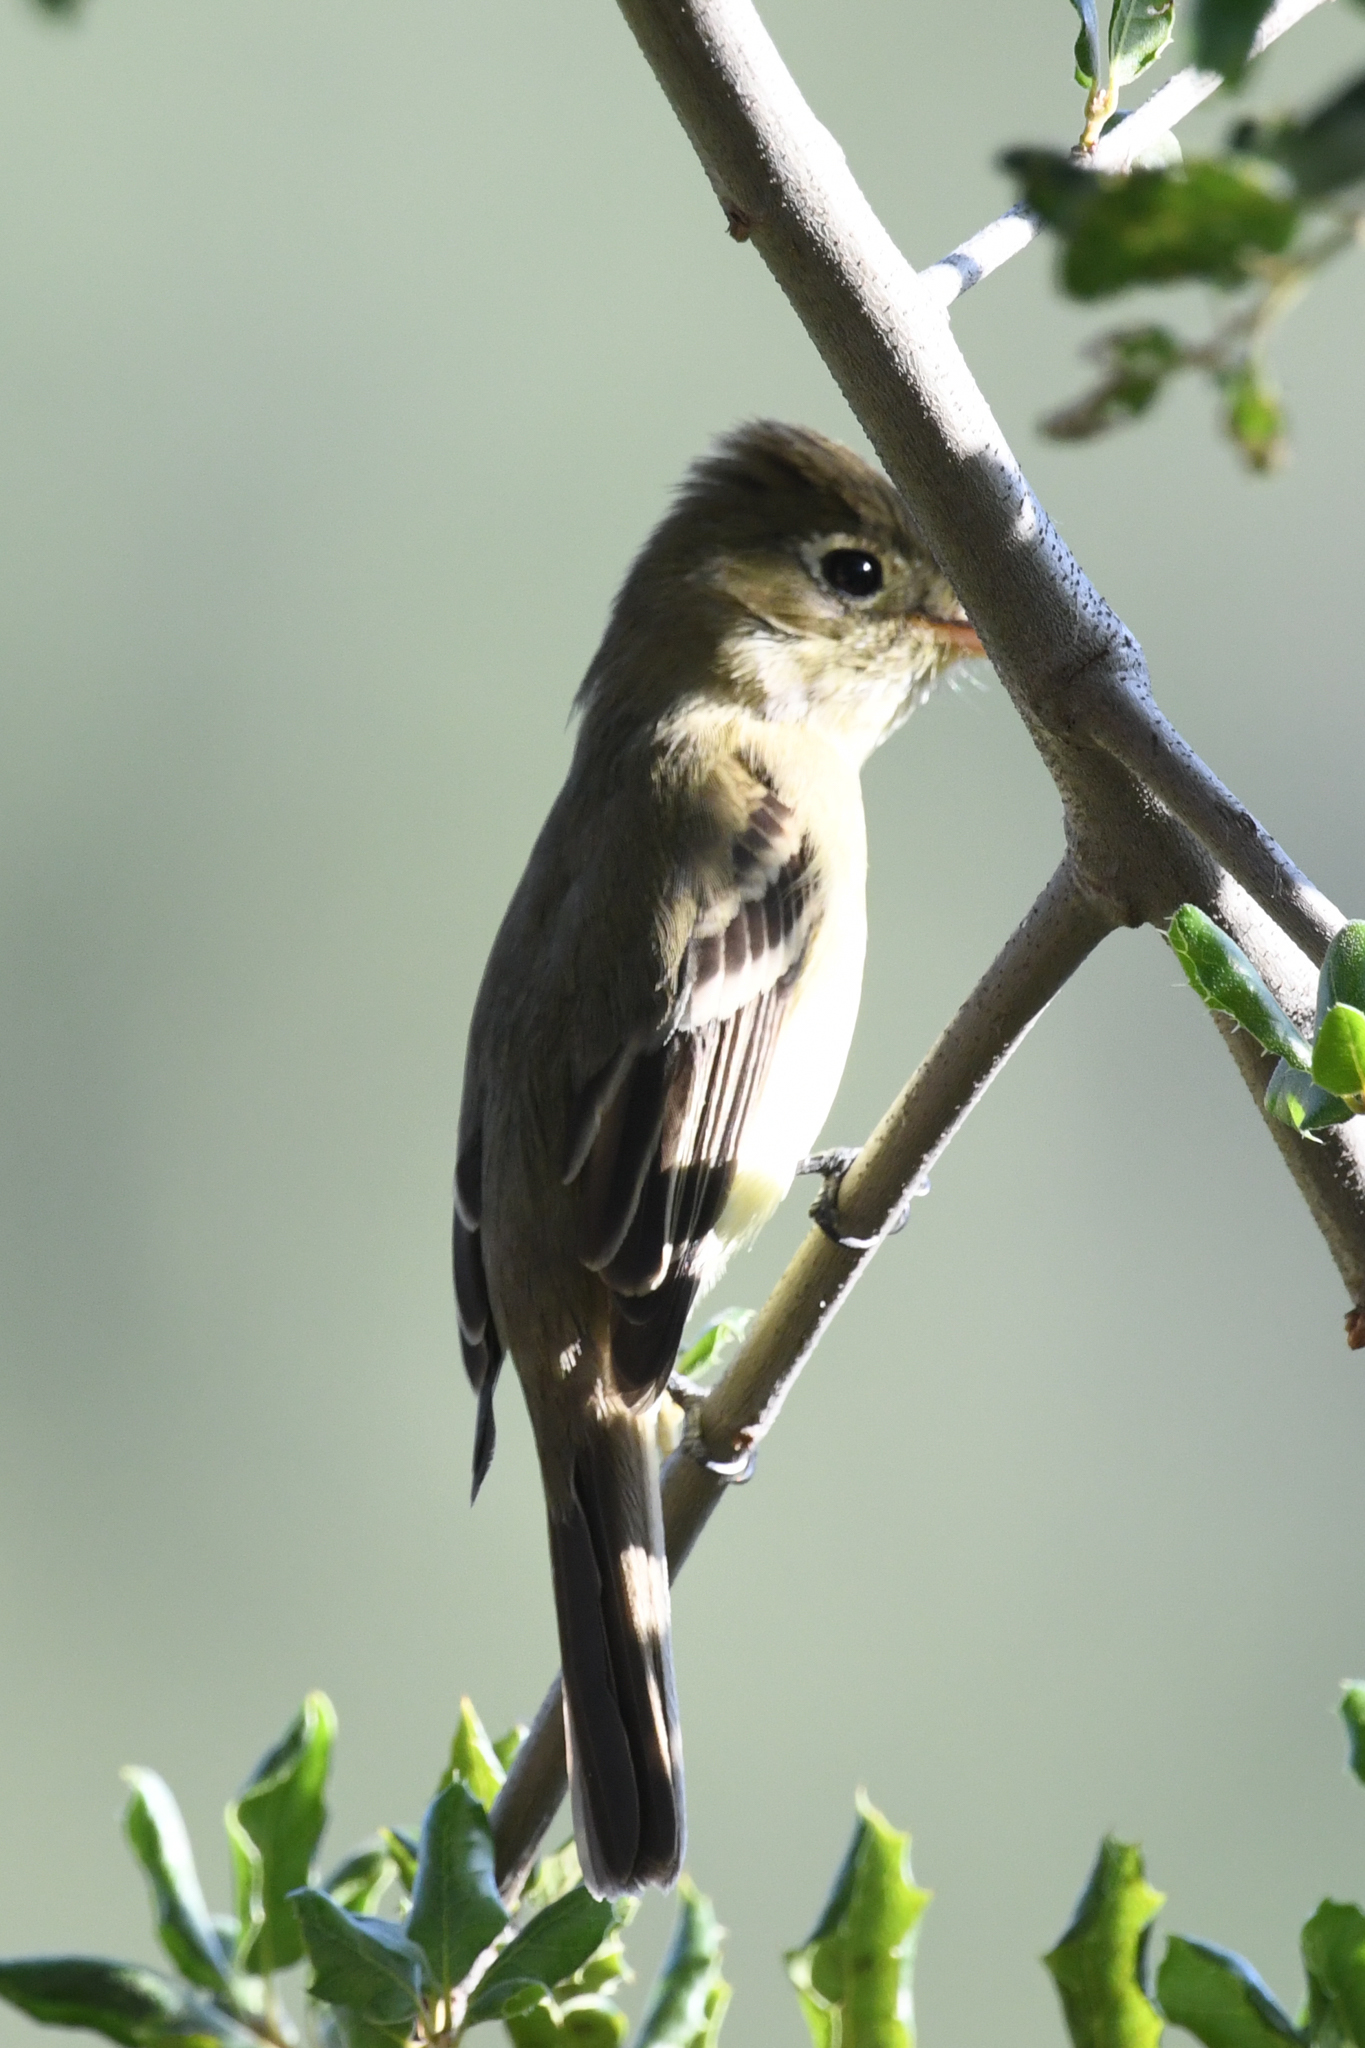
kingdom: Animalia
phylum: Chordata
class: Aves
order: Passeriformes
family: Tyrannidae
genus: Empidonax
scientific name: Empidonax difficilis
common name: Pacific-slope flycatcher
